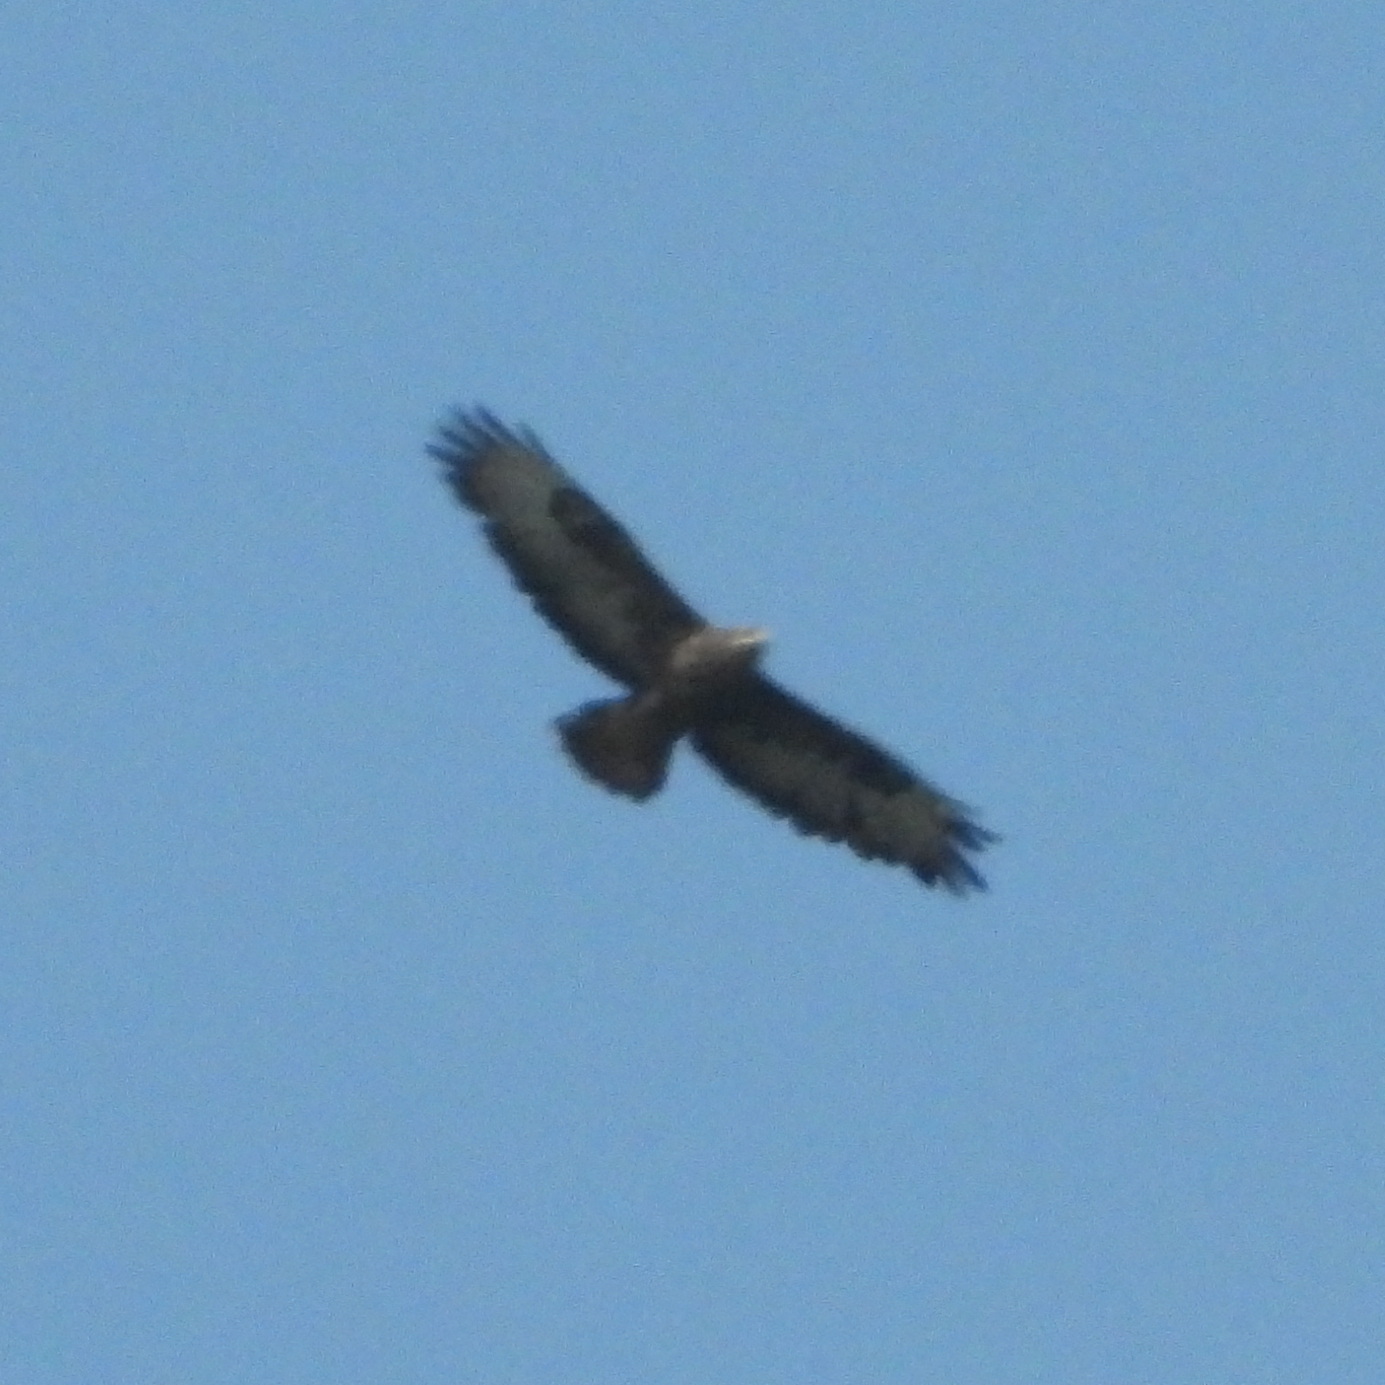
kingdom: Animalia
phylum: Chordata
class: Aves
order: Accipitriformes
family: Accipitridae
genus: Buteo
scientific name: Buteo buteo
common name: Common buzzard
